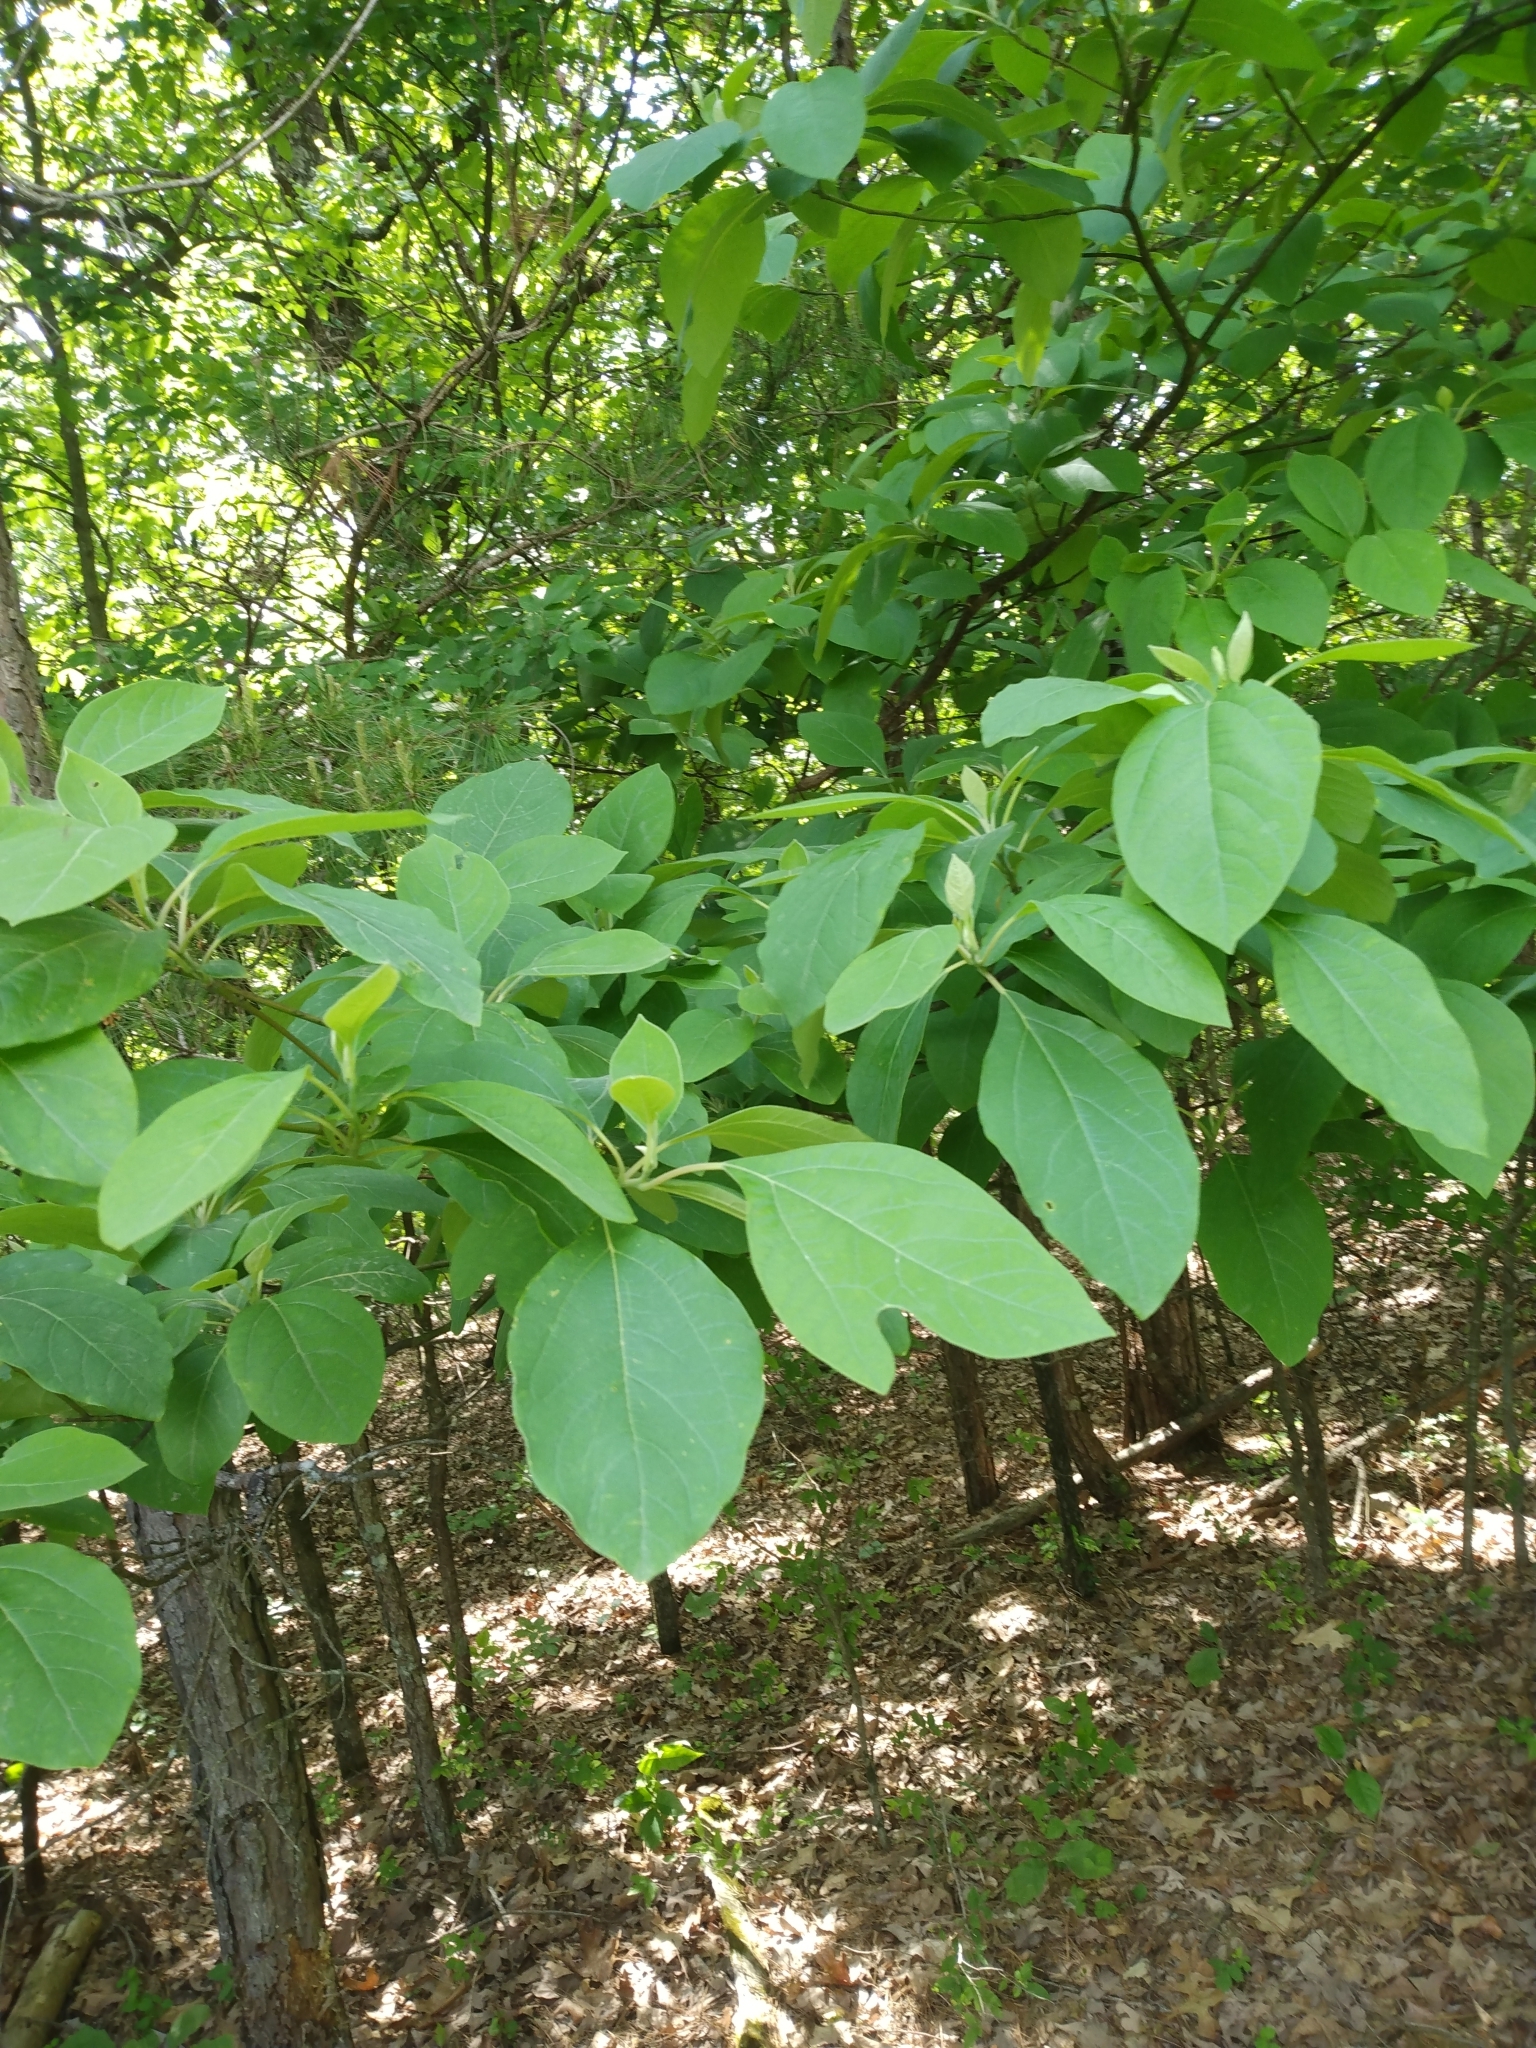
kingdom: Plantae
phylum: Tracheophyta
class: Magnoliopsida
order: Laurales
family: Lauraceae
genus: Sassafras
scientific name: Sassafras albidum
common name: Sassafras
